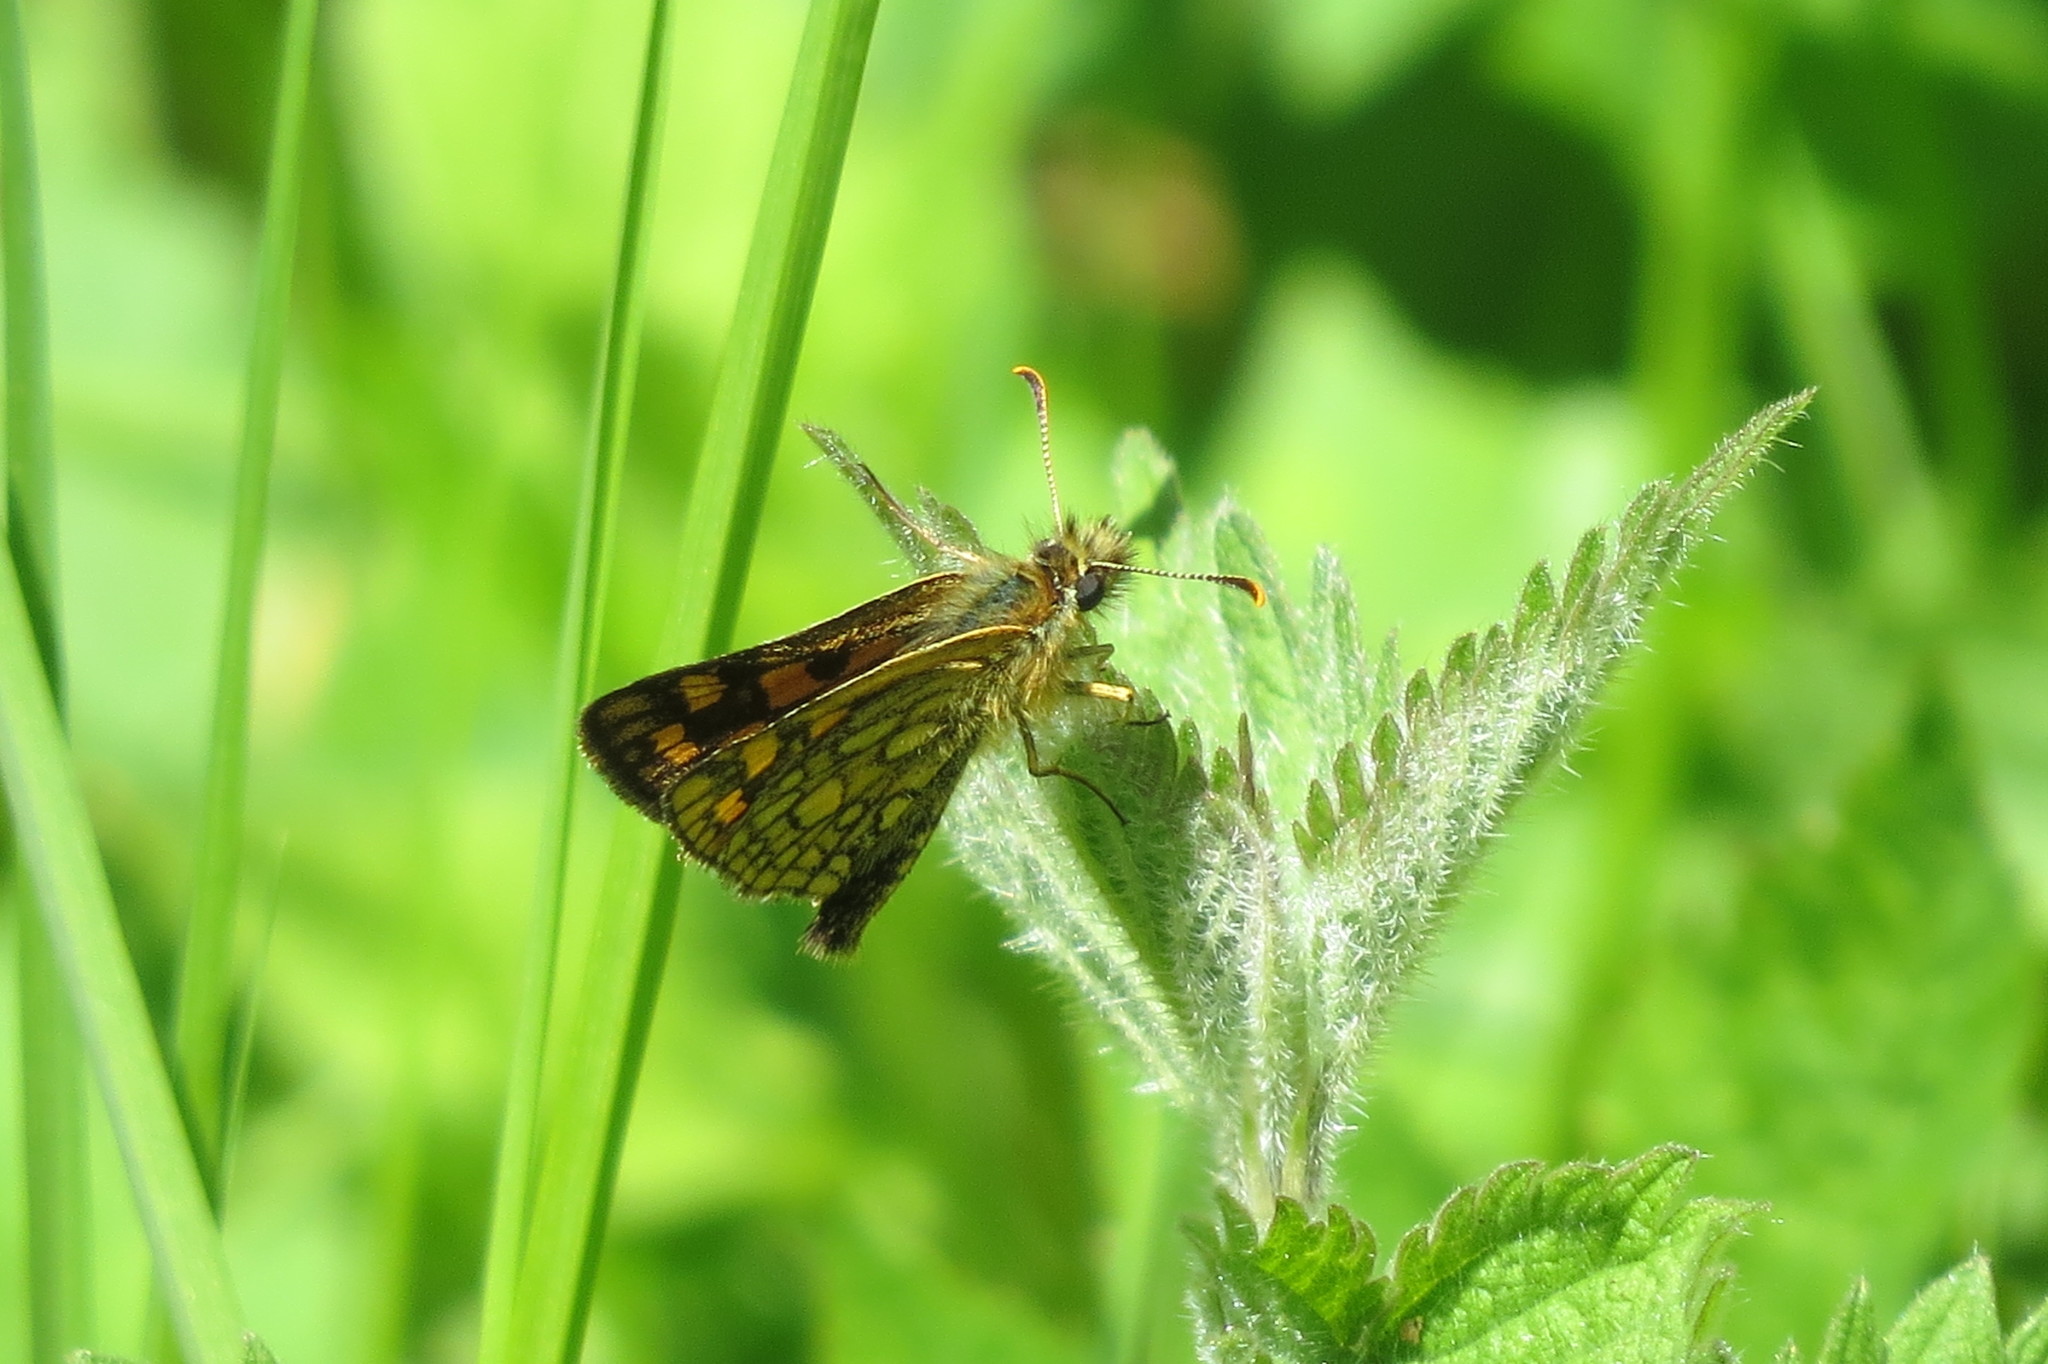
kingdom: Animalia
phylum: Arthropoda
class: Insecta
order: Lepidoptera
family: Hesperiidae
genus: Carterocephalus
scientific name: Carterocephalus palaemon
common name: Chequered skipper
